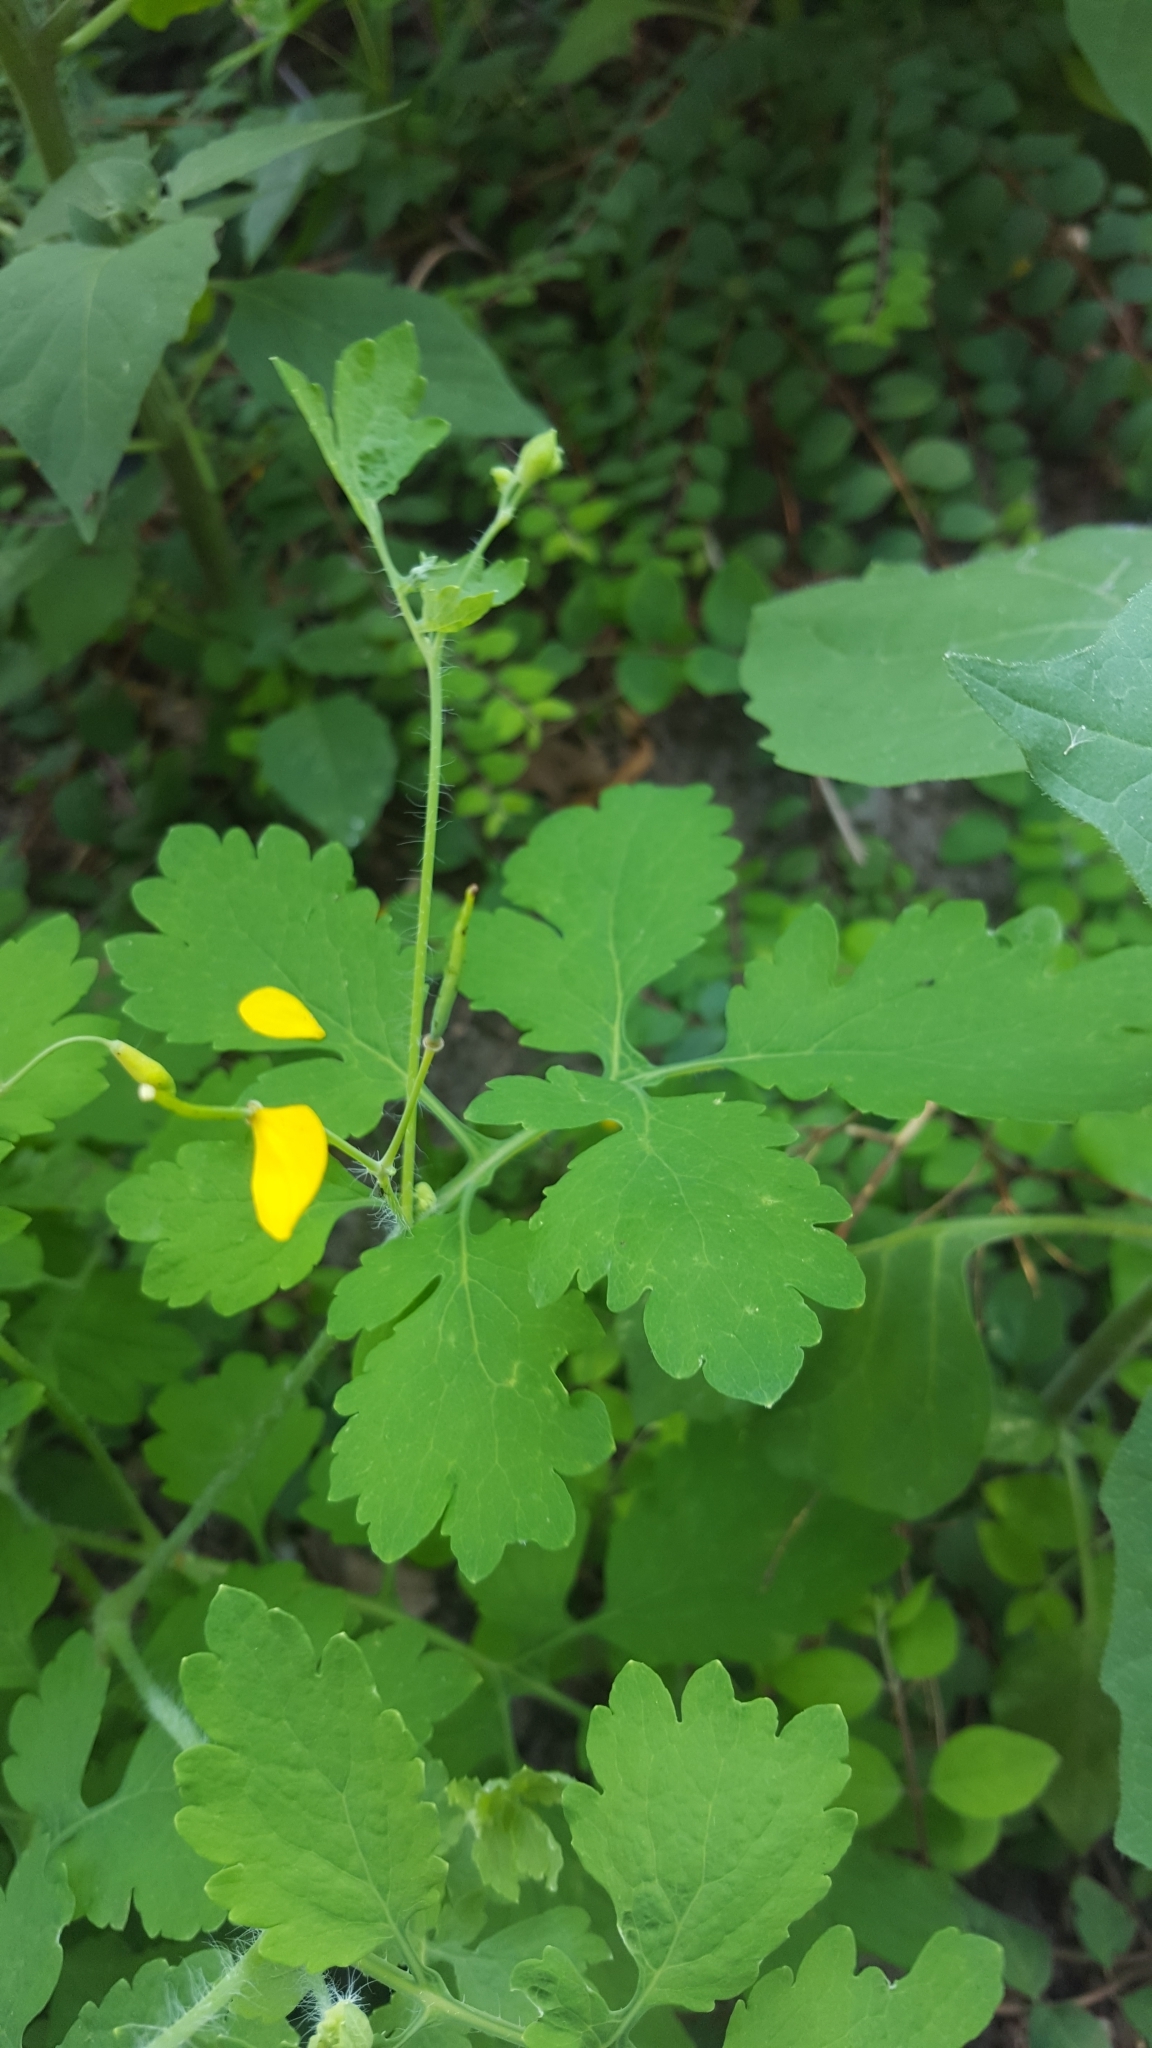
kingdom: Plantae
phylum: Tracheophyta
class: Magnoliopsida
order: Ranunculales
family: Papaveraceae
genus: Chelidonium
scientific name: Chelidonium majus
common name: Greater celandine
